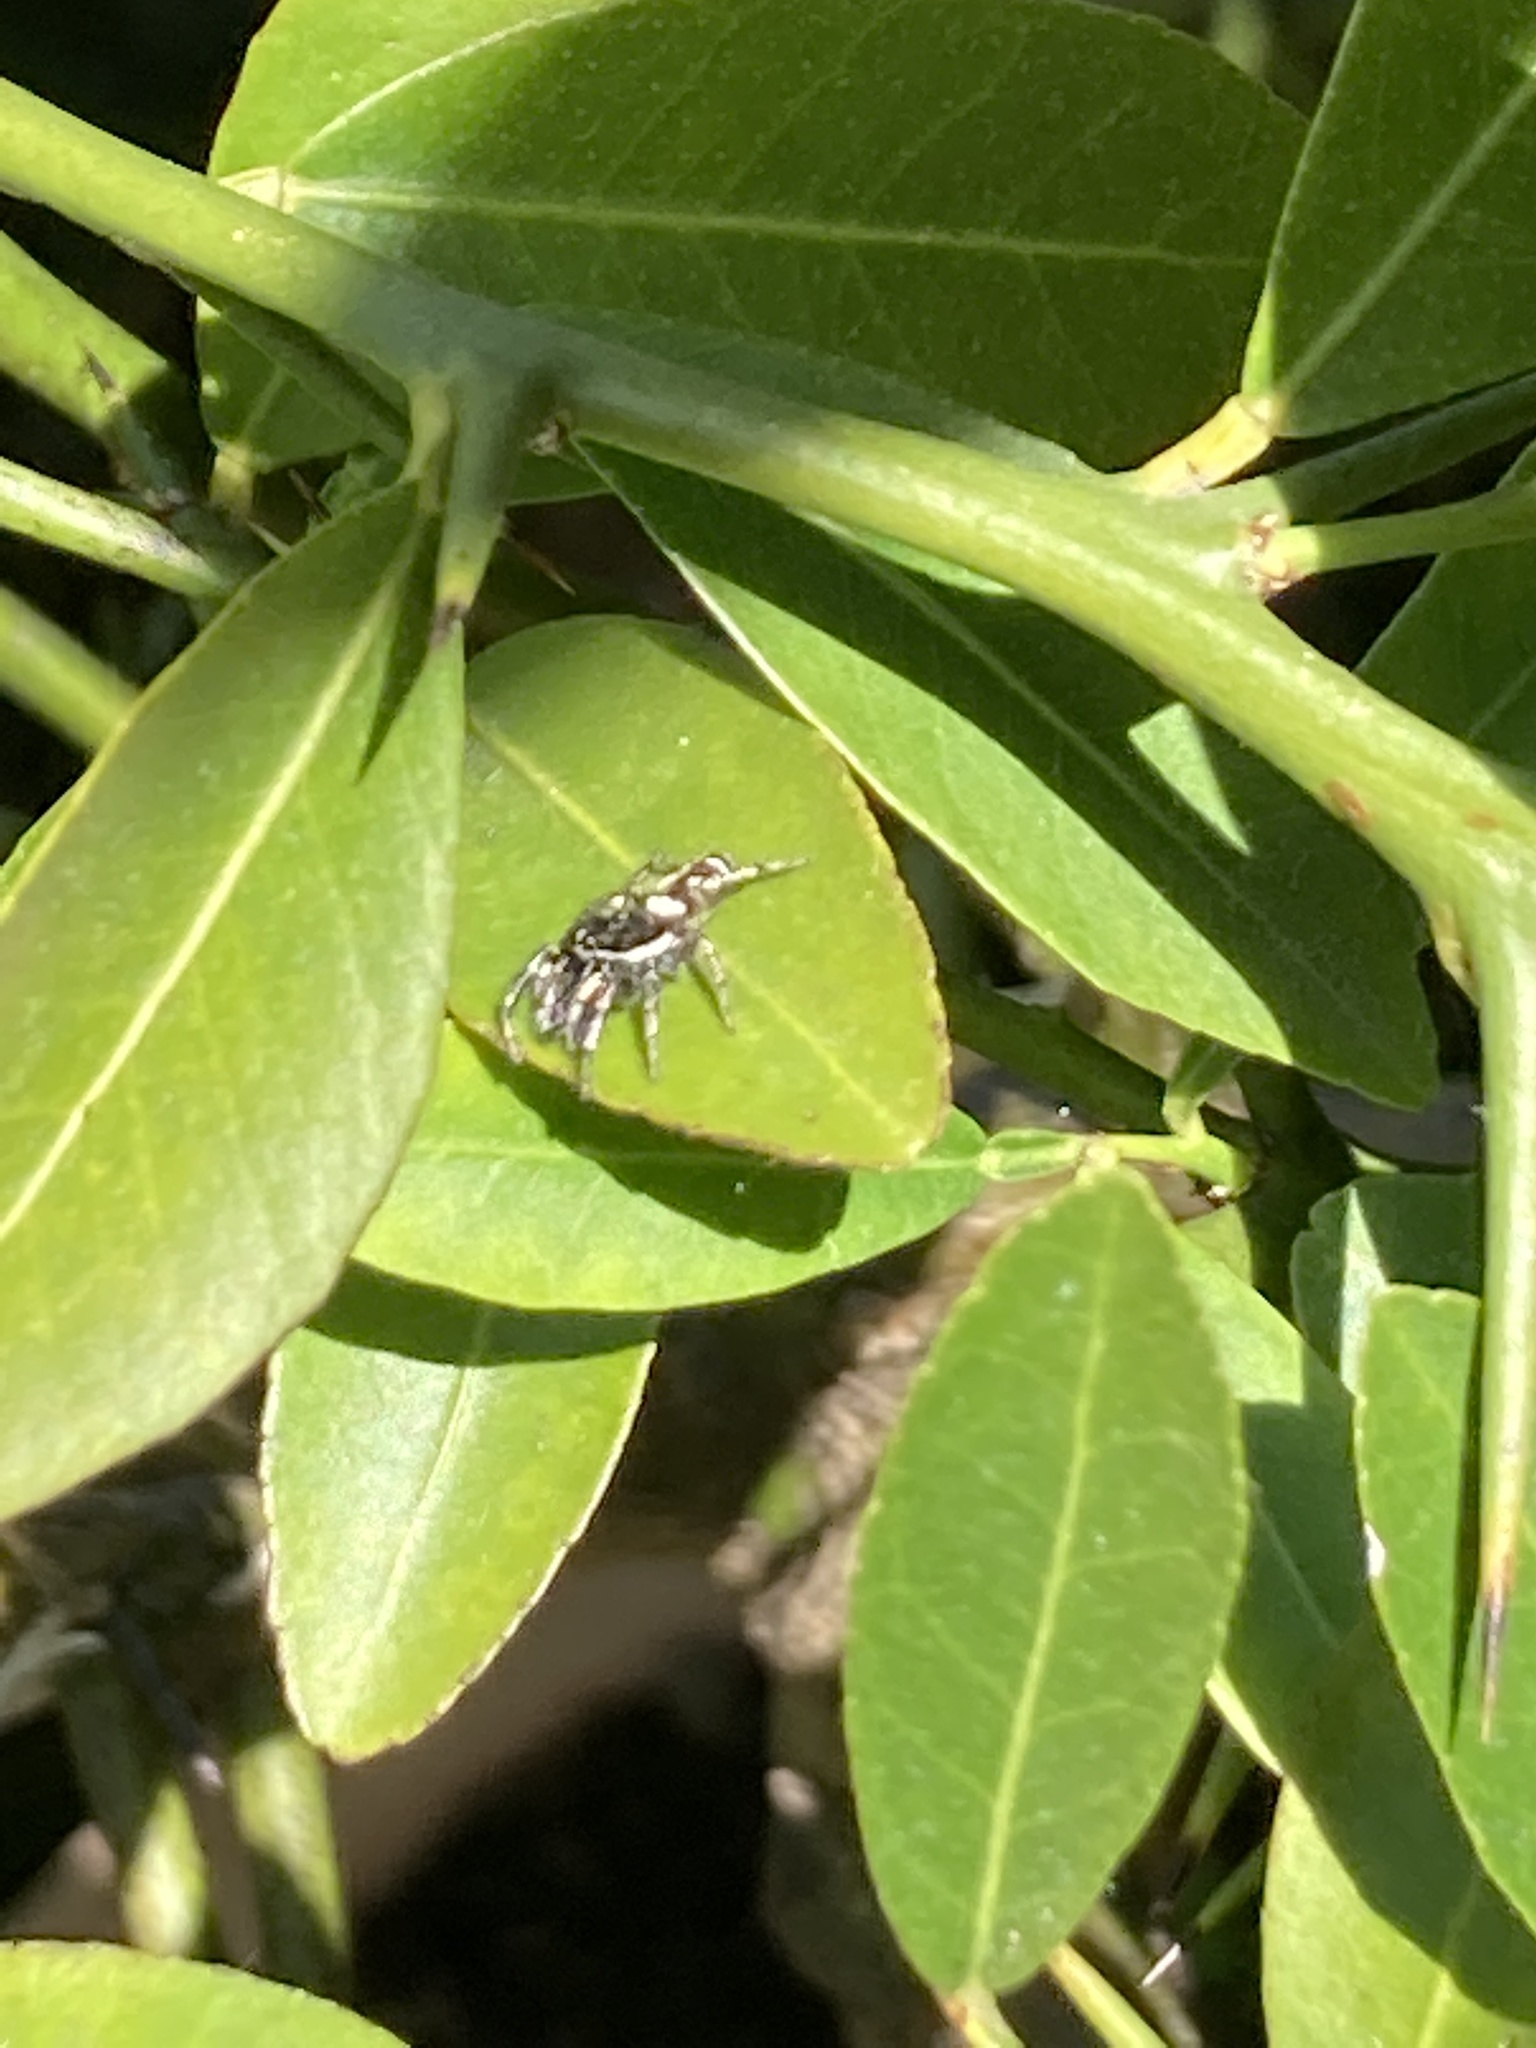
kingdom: Animalia
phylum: Arthropoda
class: Arachnida
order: Araneae
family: Salticidae
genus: Salticus
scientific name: Salticus scenicus
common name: Zebra jumper
